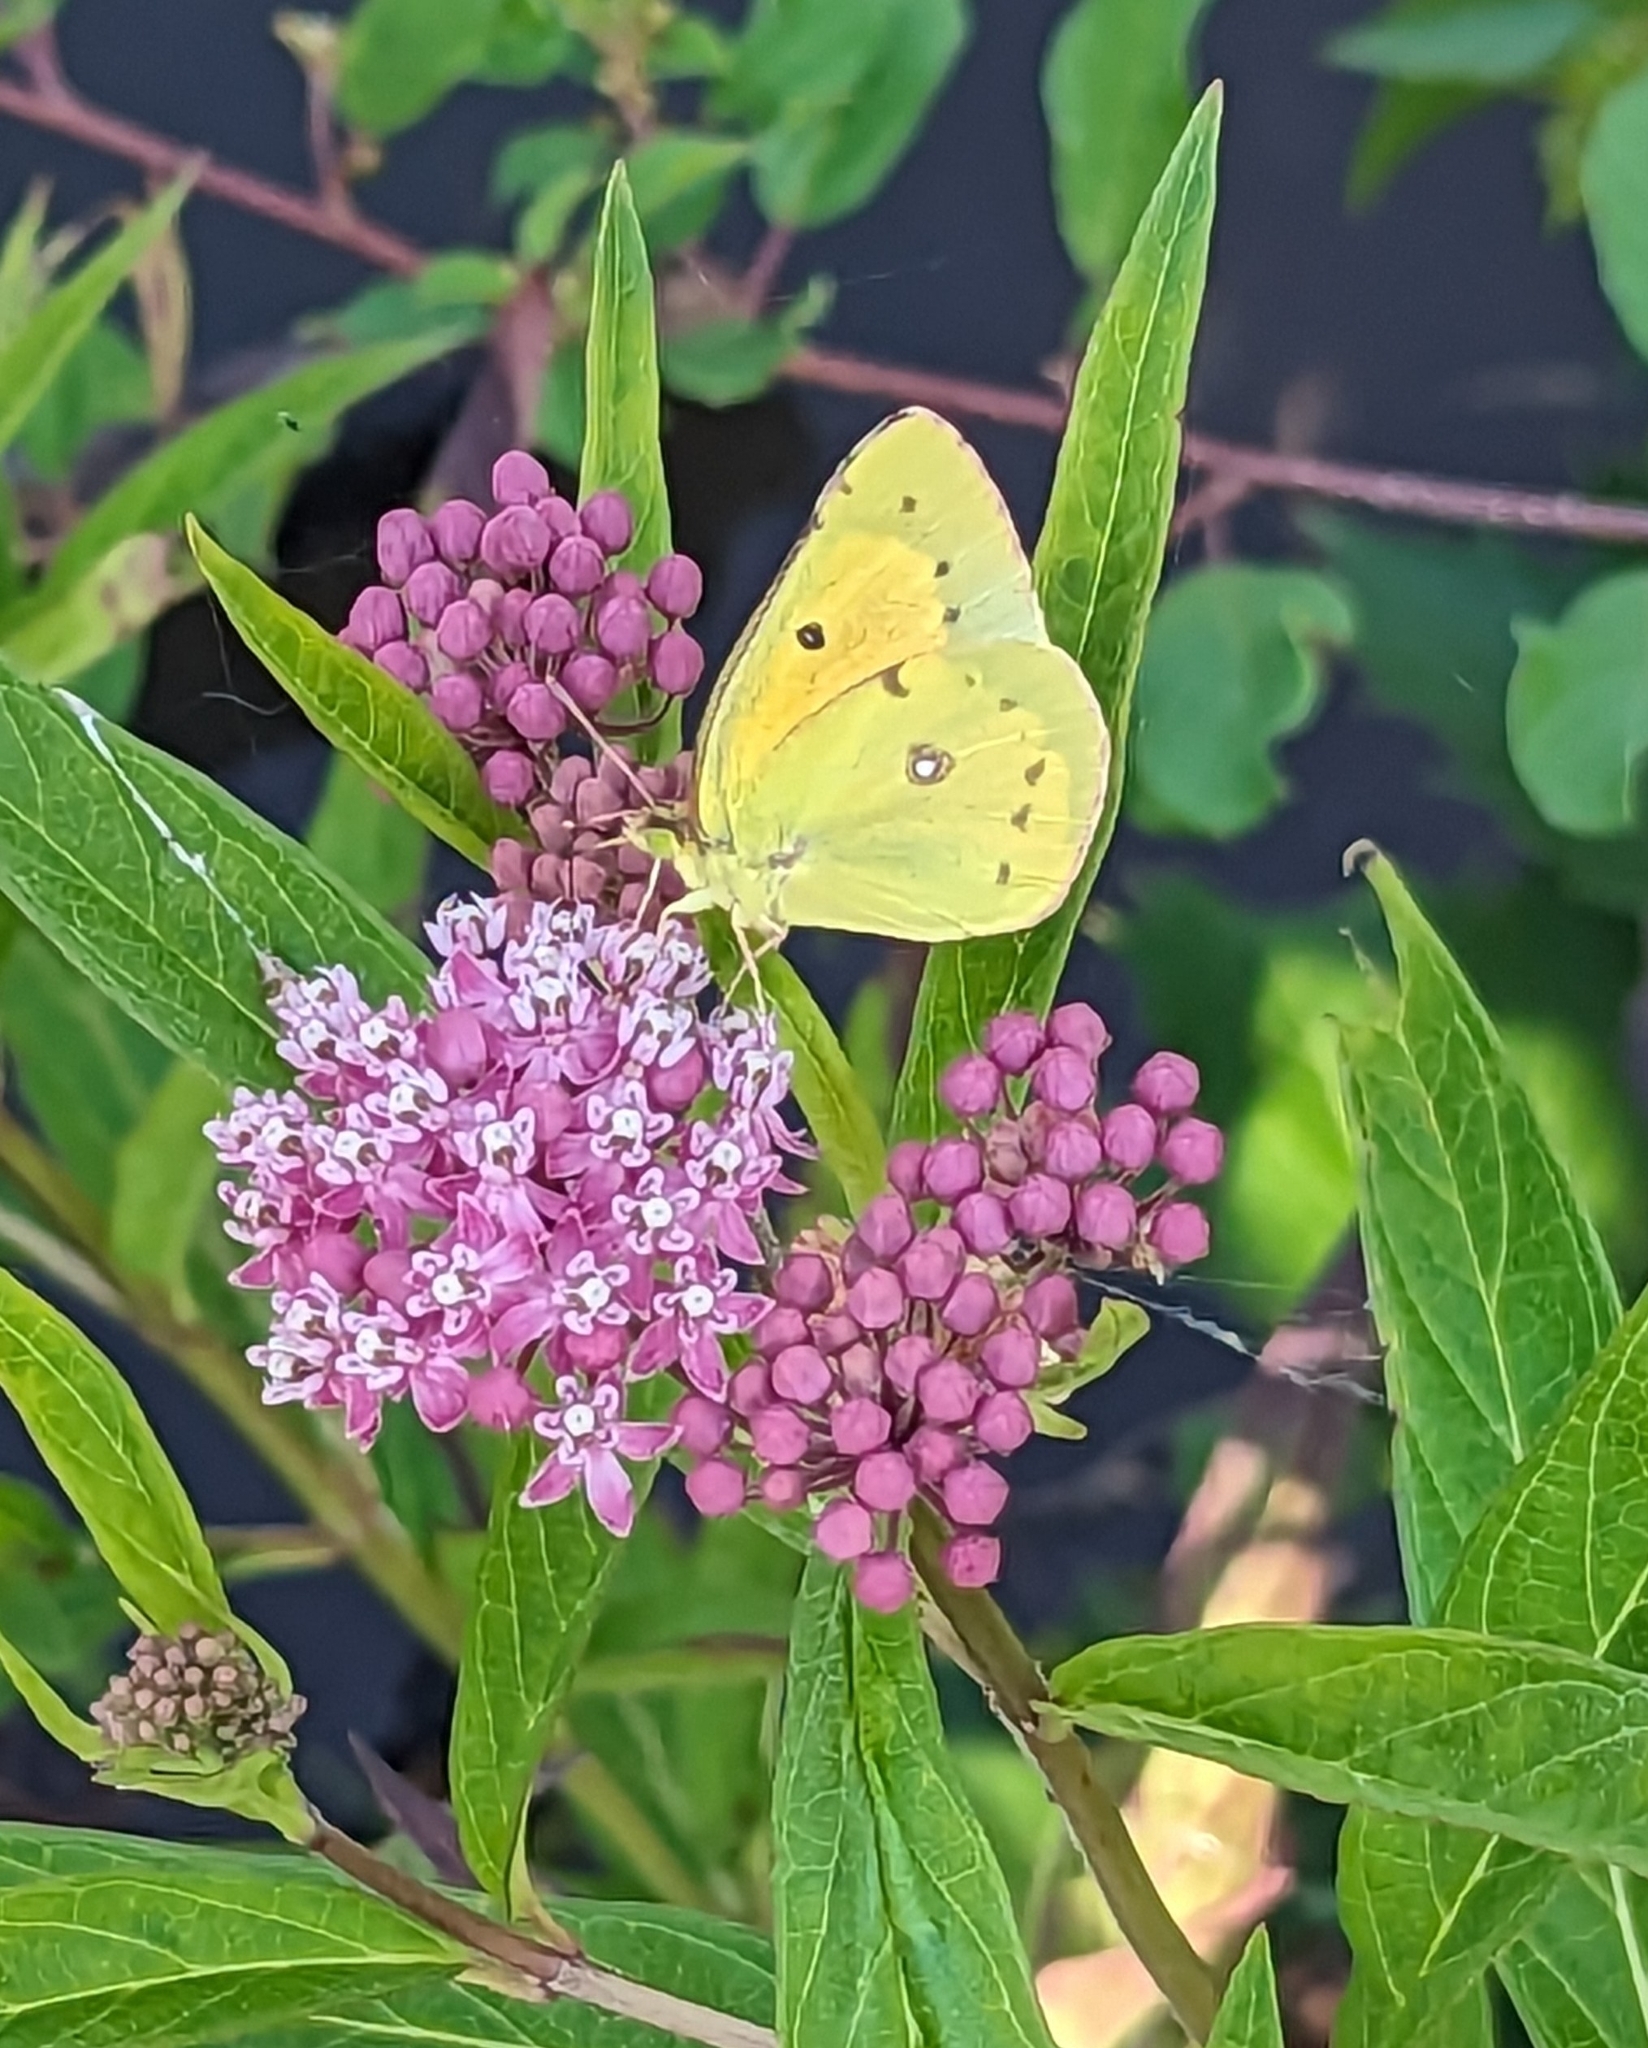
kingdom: Animalia
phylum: Arthropoda
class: Insecta
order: Lepidoptera
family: Pieridae
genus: Colias
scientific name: Colias eurytheme
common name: Alfalfa butterfly
